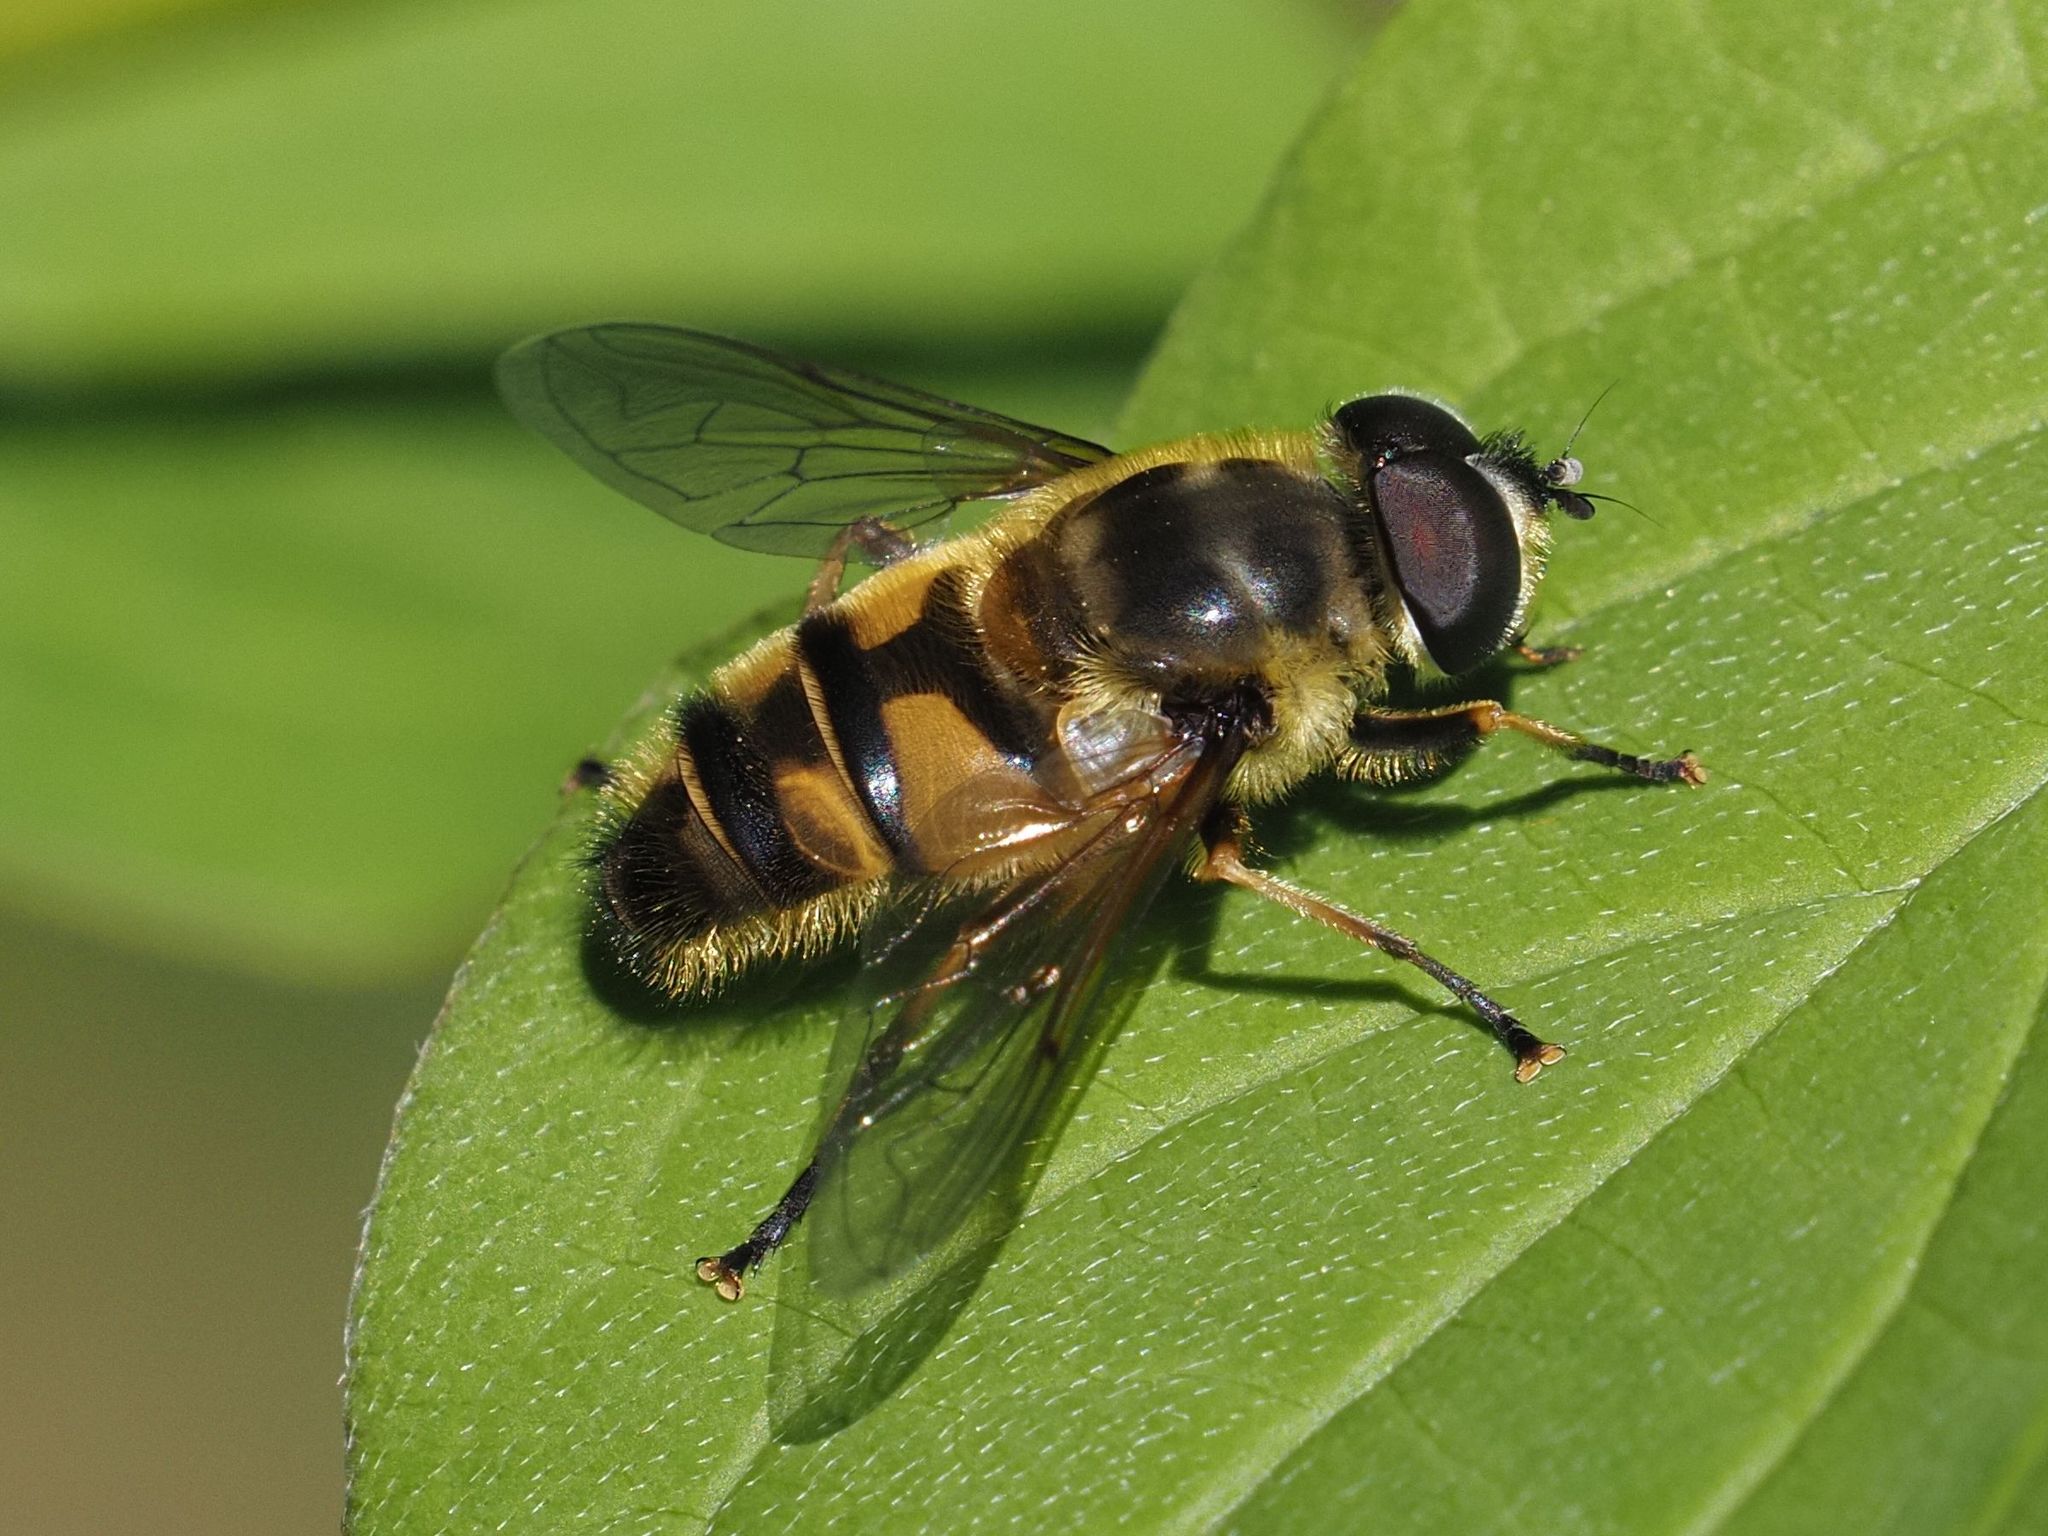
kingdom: Animalia
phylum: Arthropoda
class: Insecta
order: Diptera
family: Syrphidae
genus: Myathropa
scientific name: Myathropa florea
